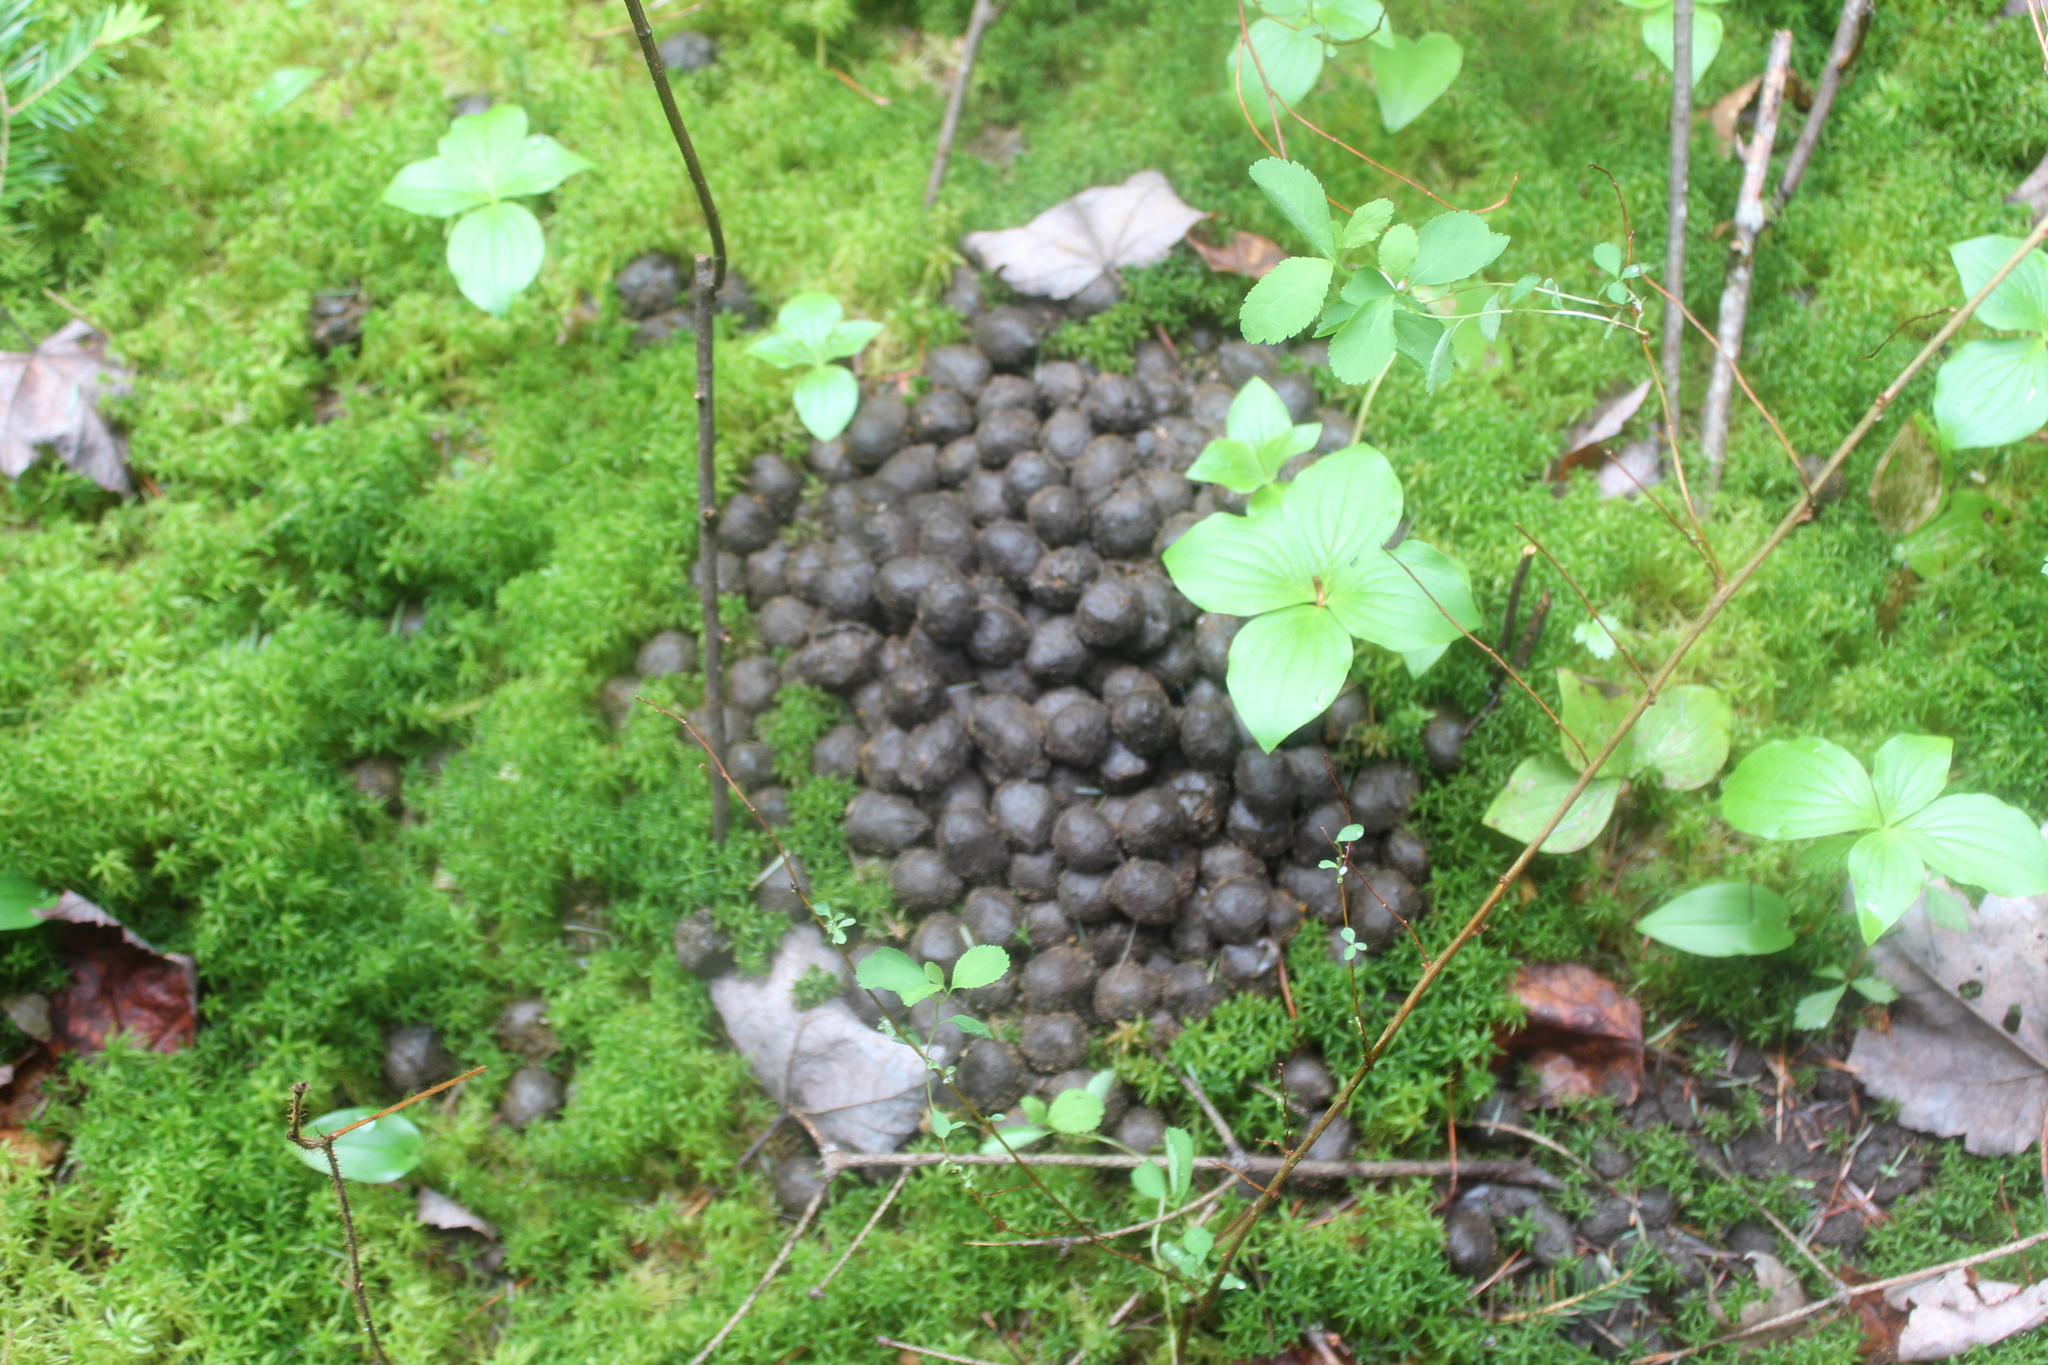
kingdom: Animalia
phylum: Chordata
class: Mammalia
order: Artiodactyla
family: Cervidae
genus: Alces
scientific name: Alces alces
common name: Moose
